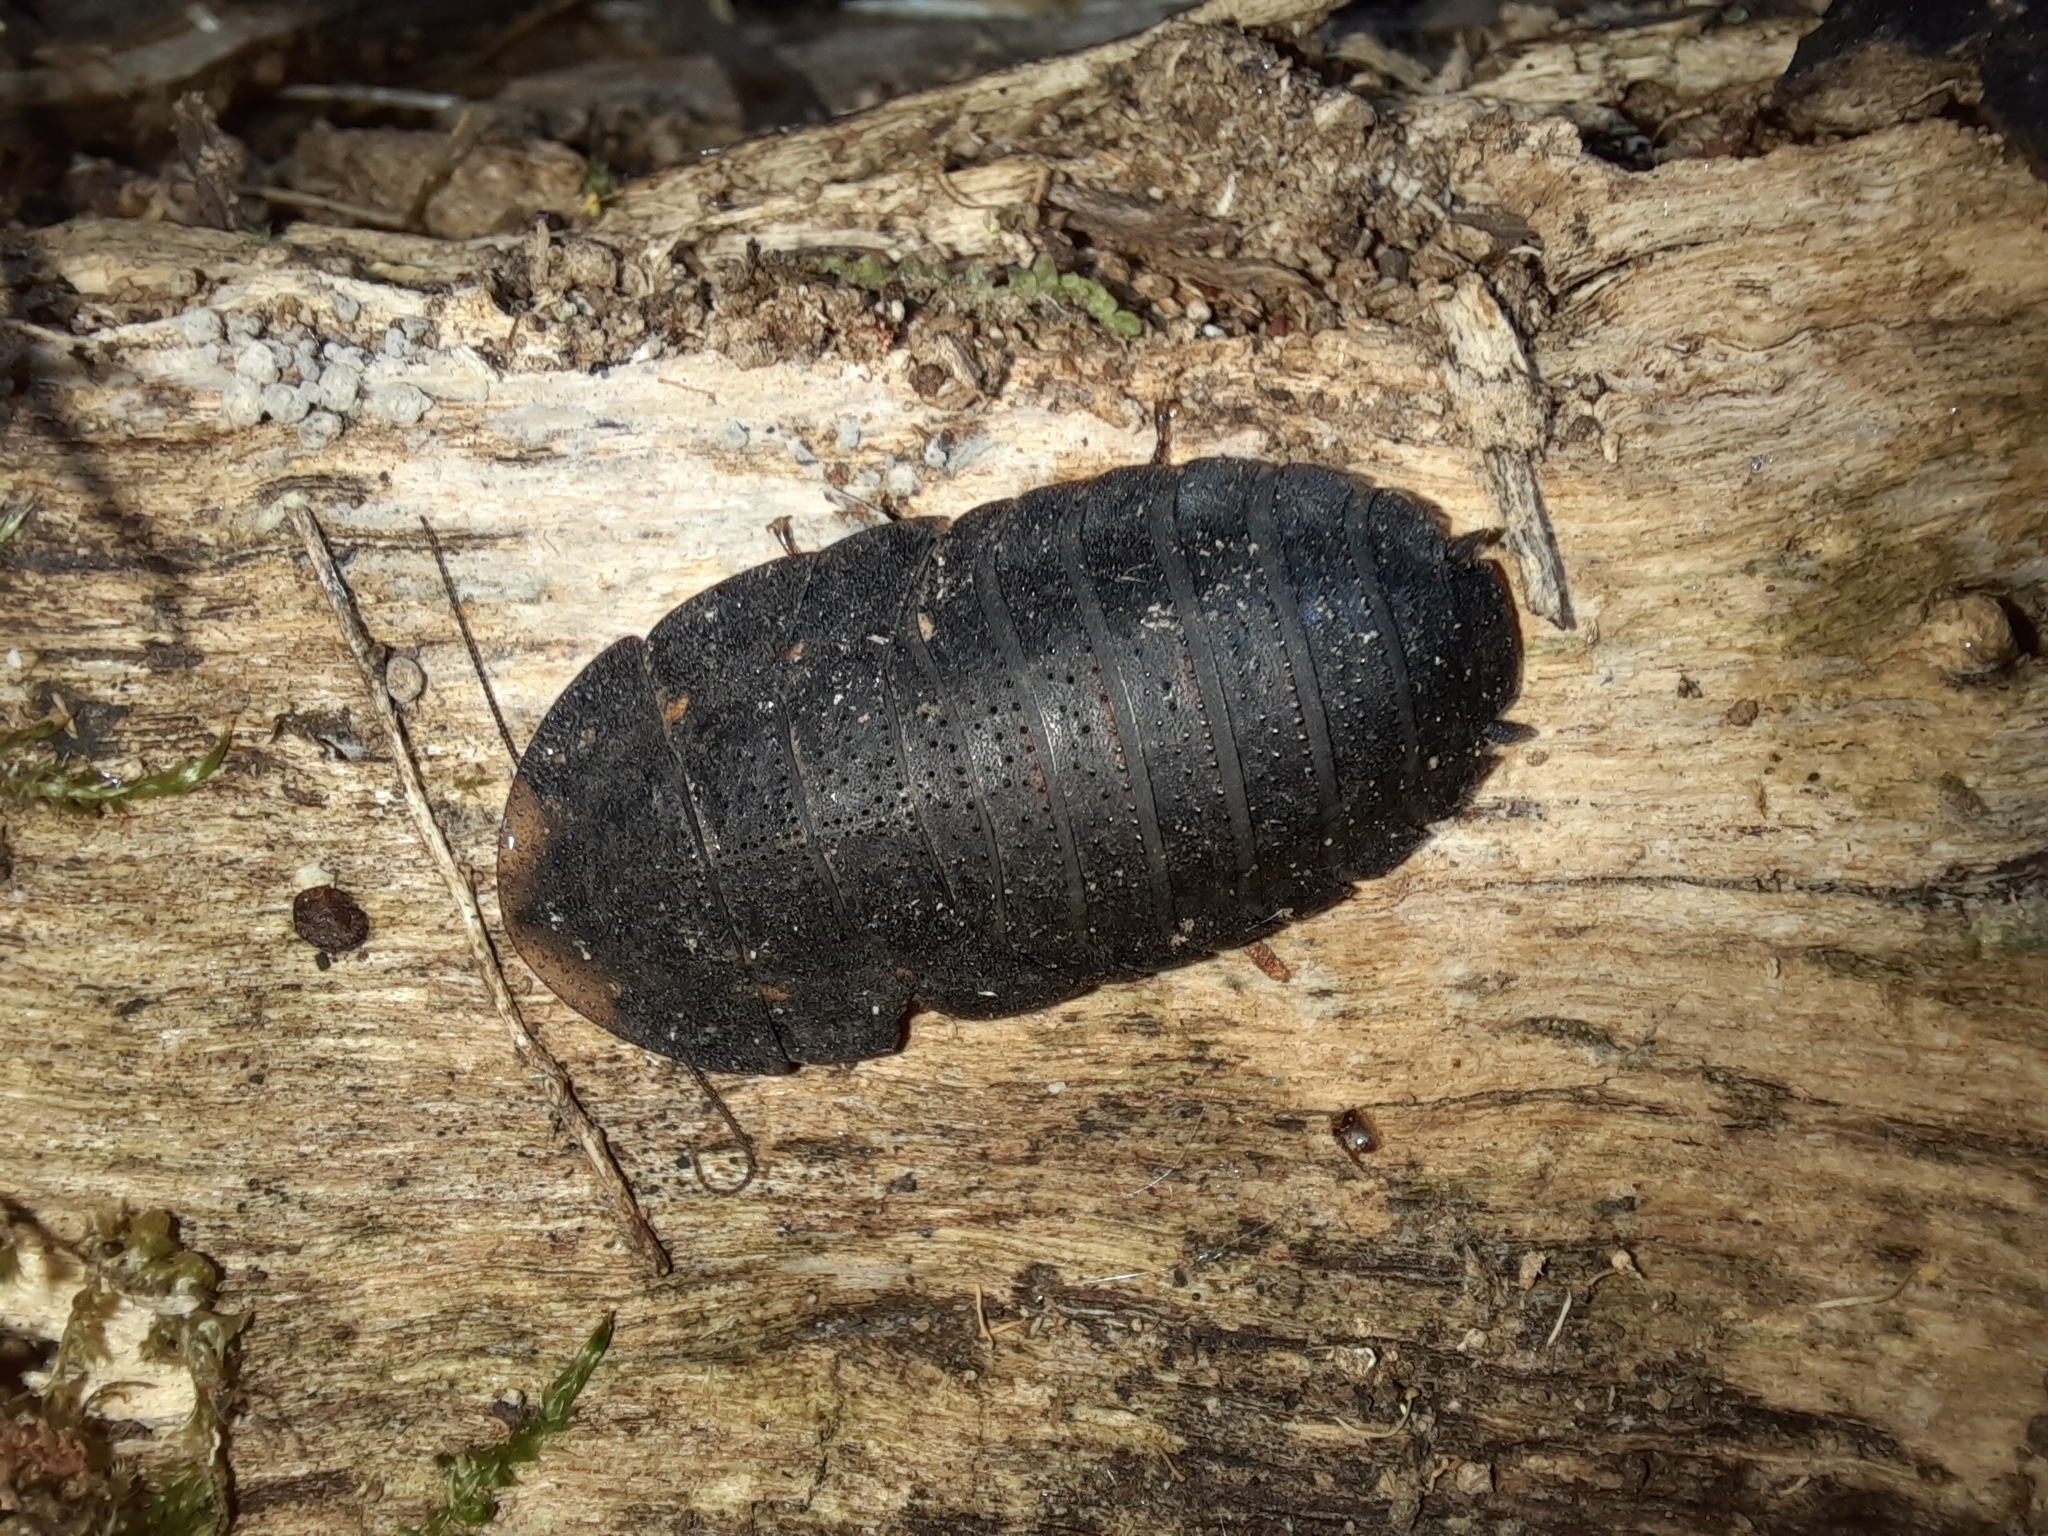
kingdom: Animalia
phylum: Arthropoda
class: Insecta
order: Blattodea
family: Blaberidae
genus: Laxta
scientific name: Laxta granicollis
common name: Bark cockroach
